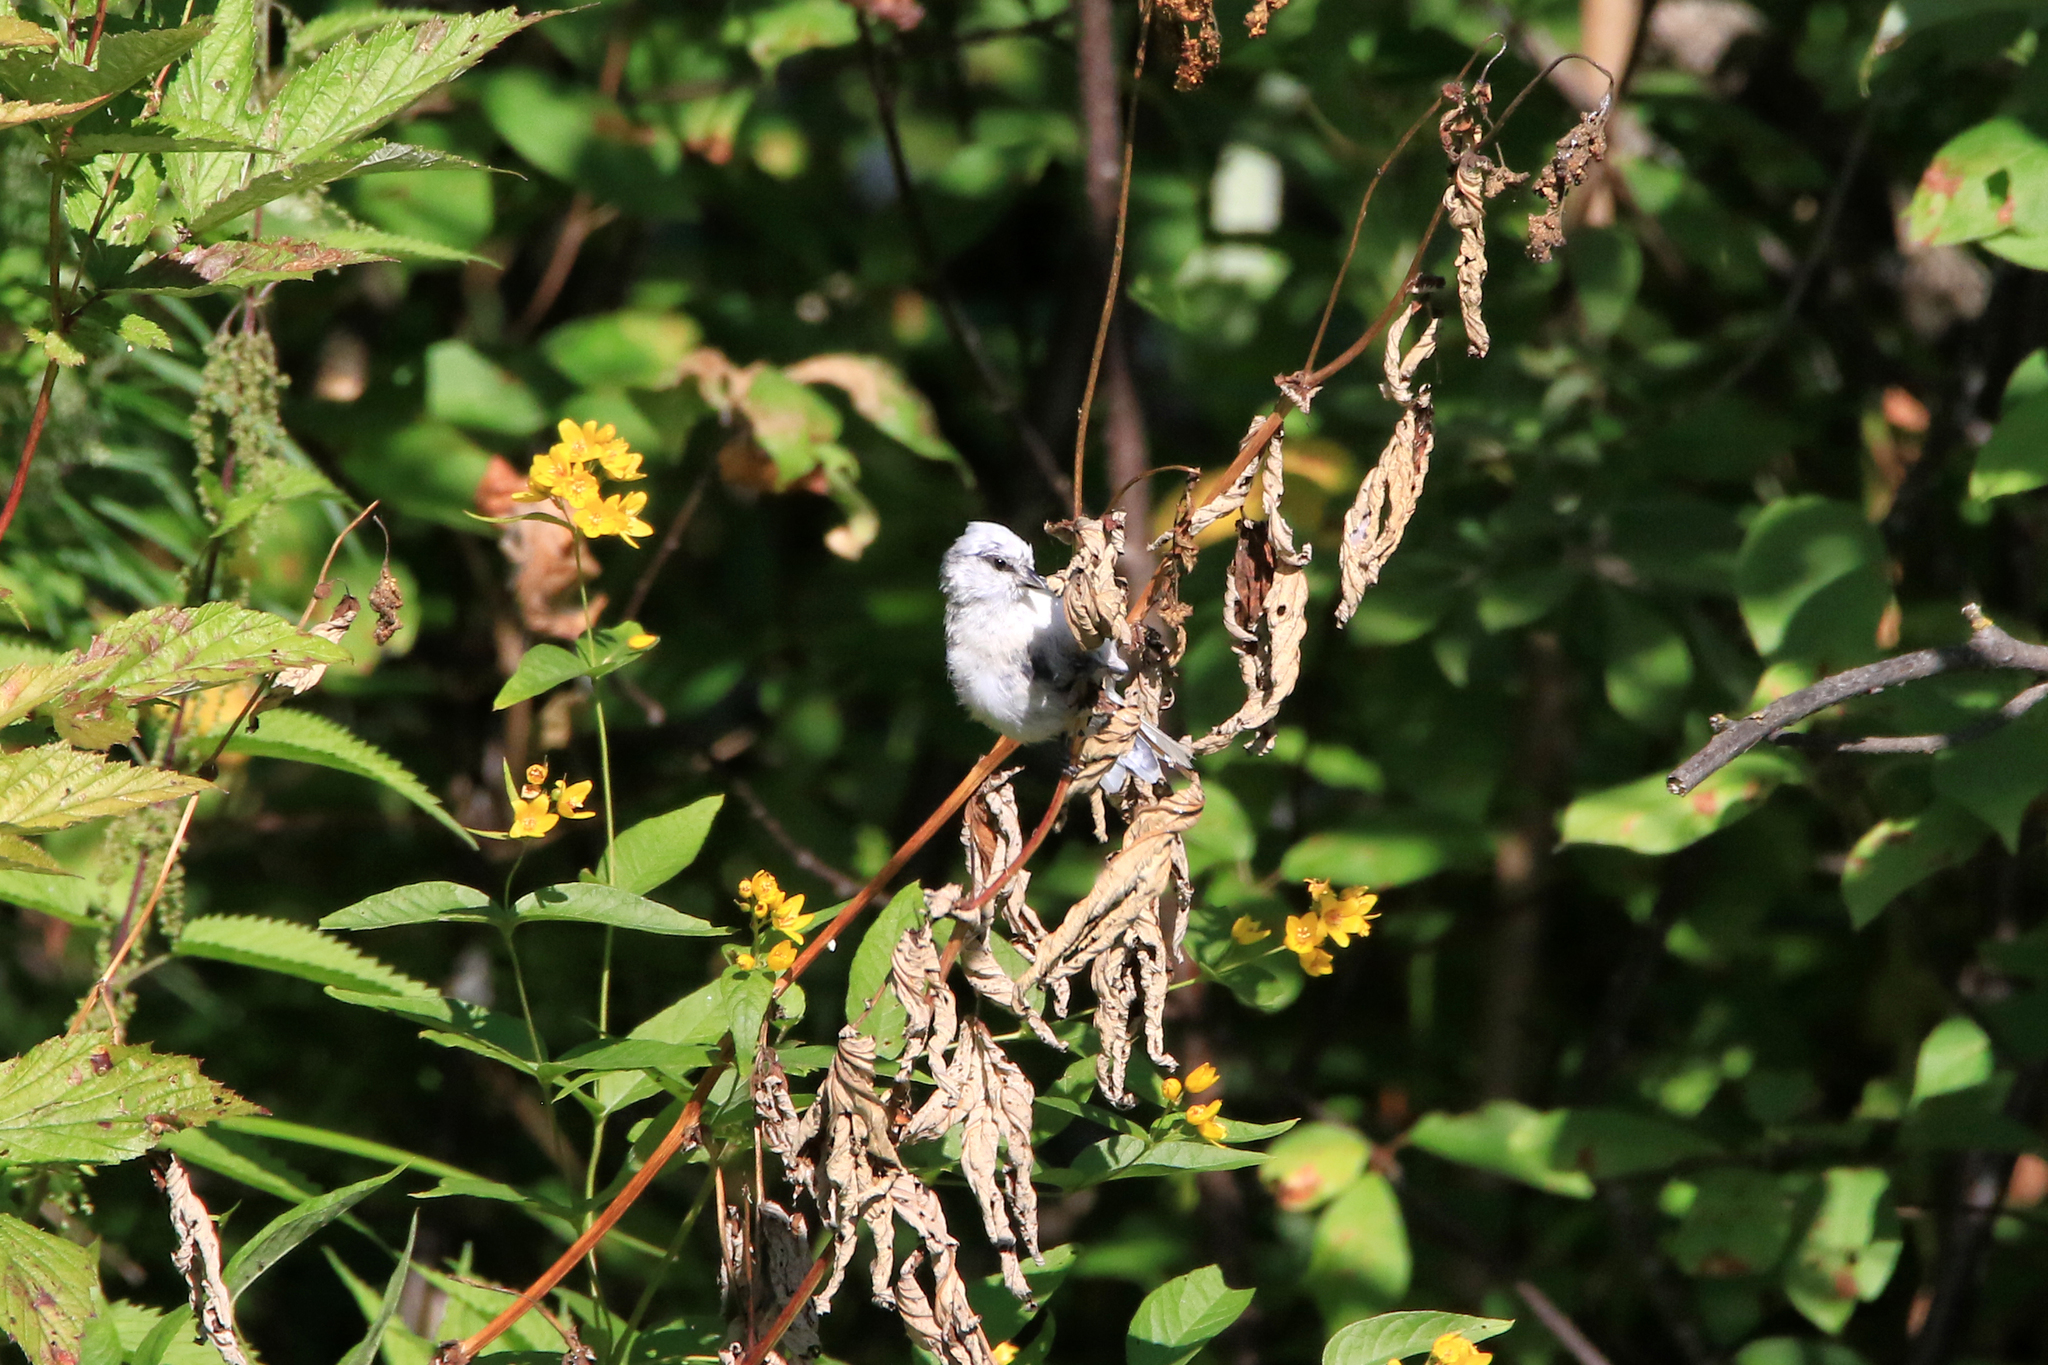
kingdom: Animalia
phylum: Chordata
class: Aves
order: Passeriformes
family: Paridae
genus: Cyanistes
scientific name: Cyanistes cyanus
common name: Azure tit
